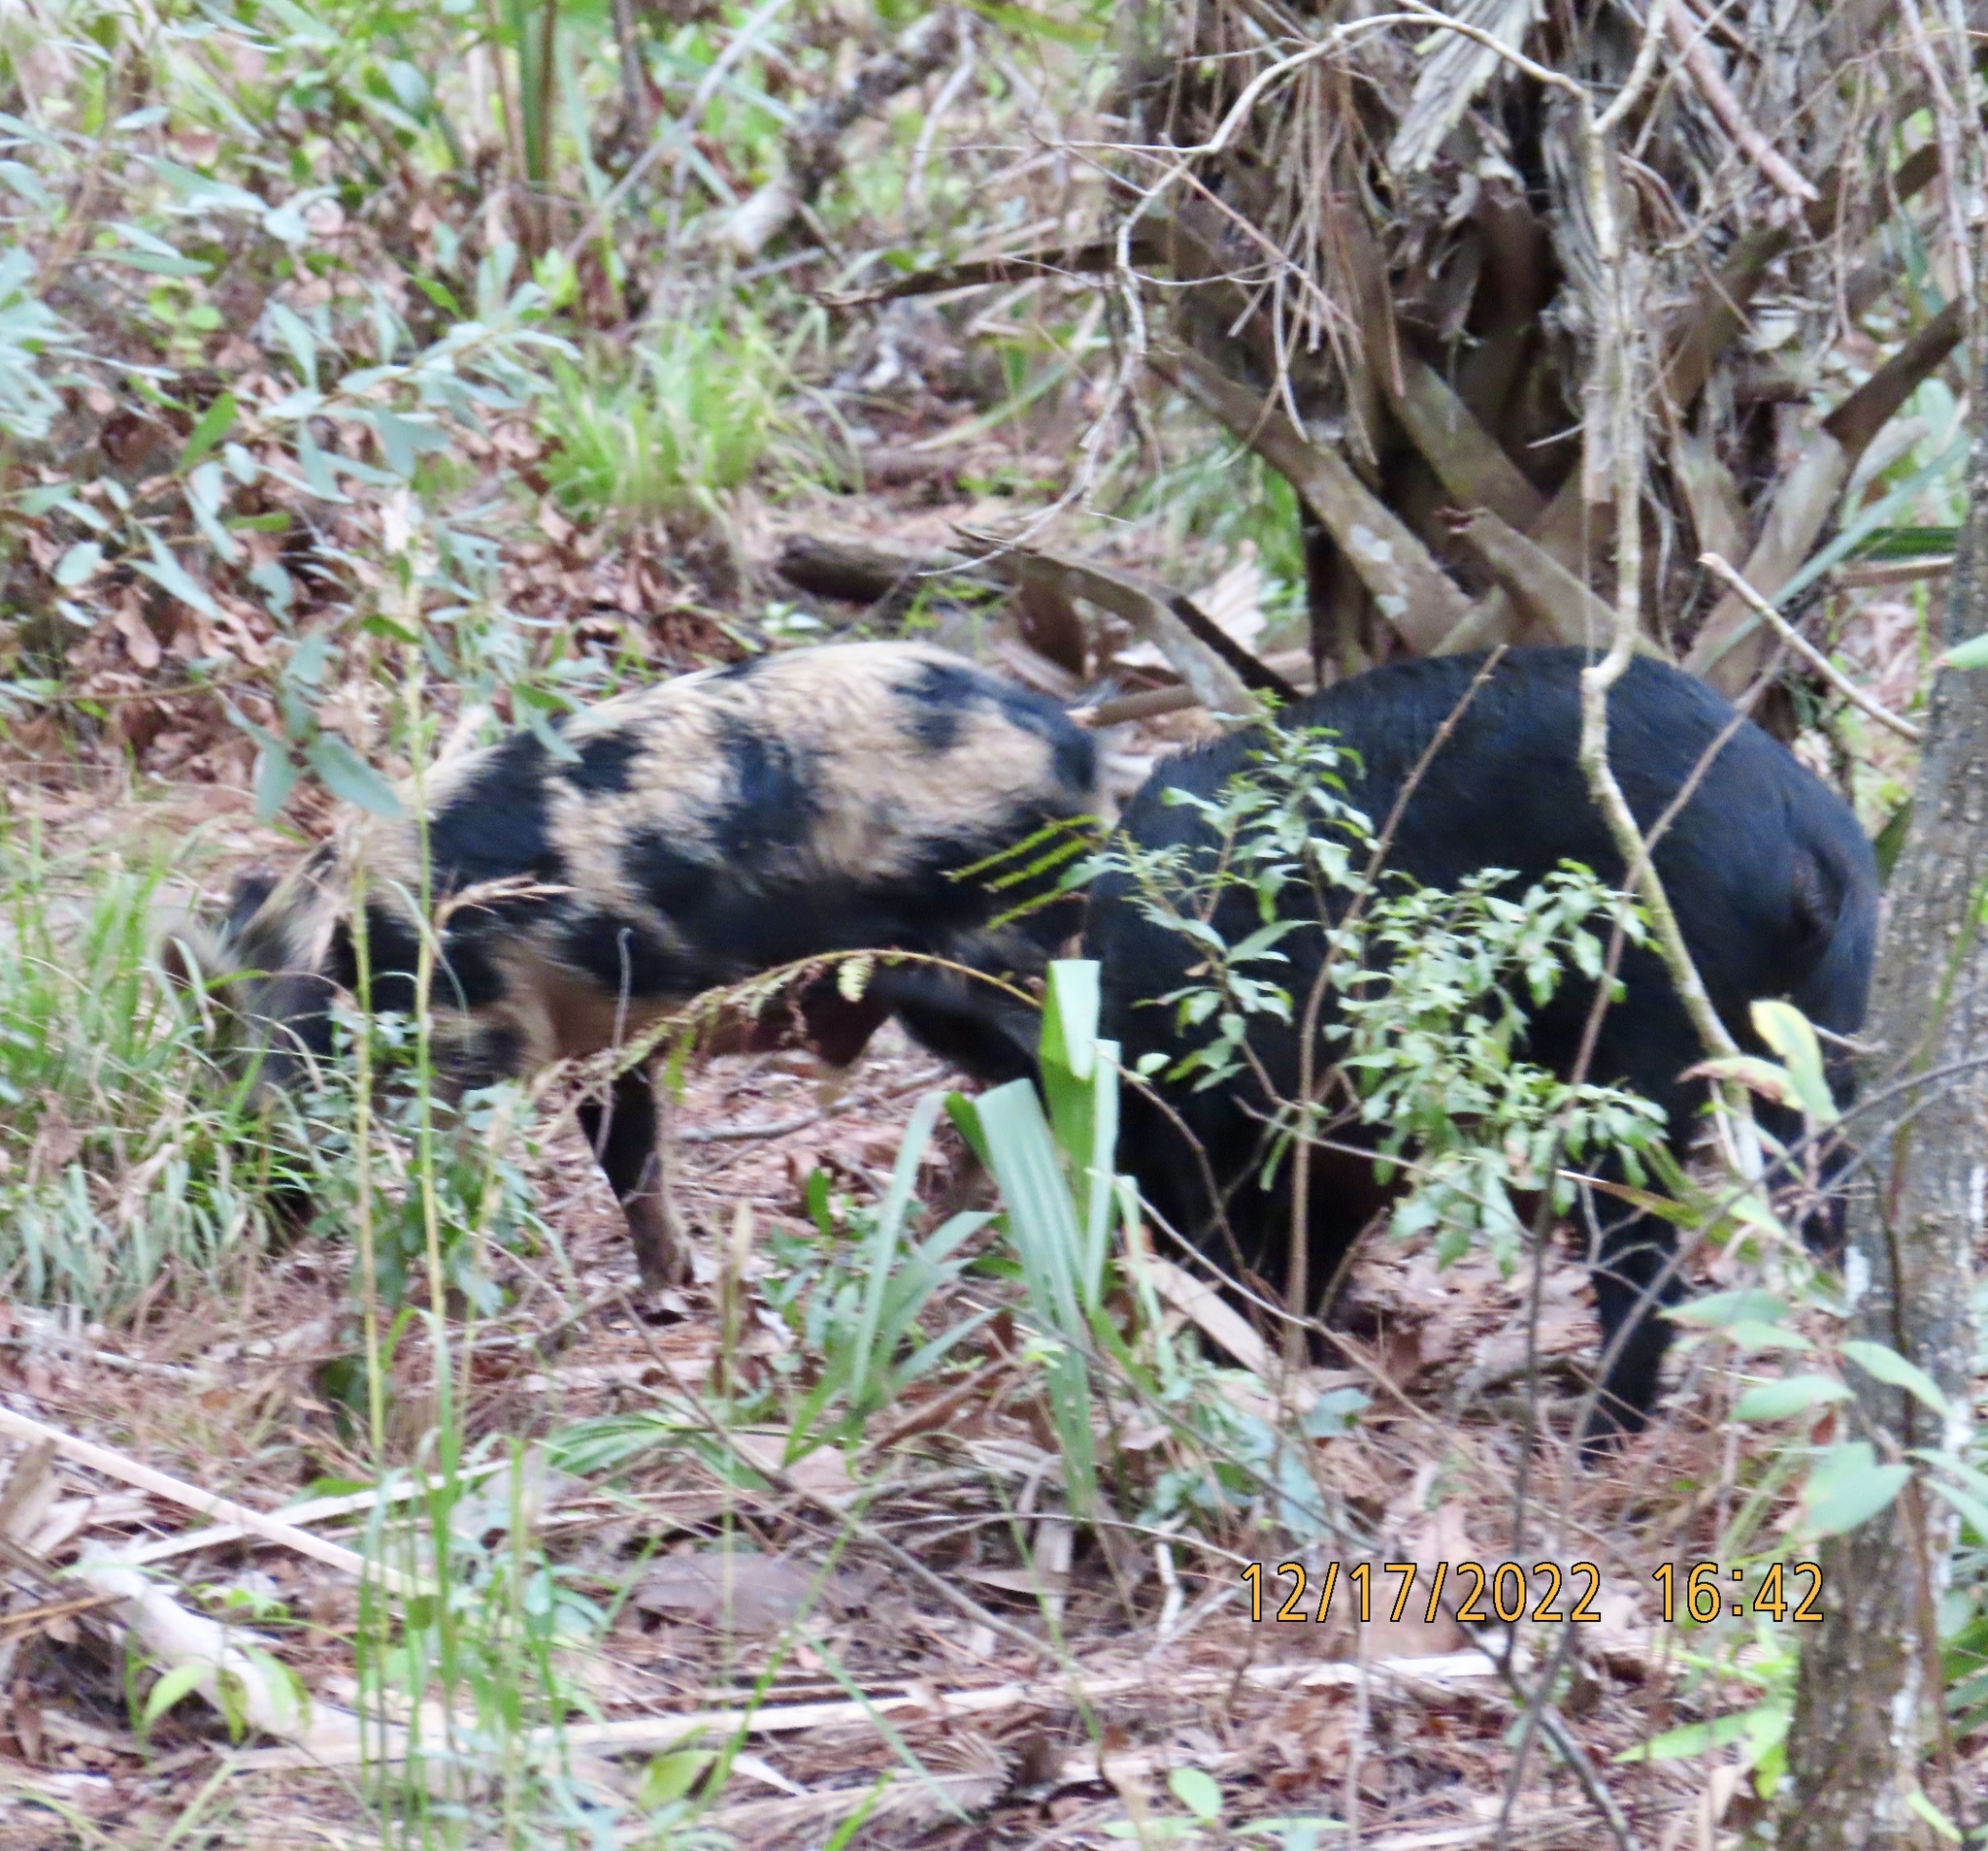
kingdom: Animalia
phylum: Chordata
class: Mammalia
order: Artiodactyla
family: Suidae
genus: Sus
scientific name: Sus scrofa
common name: Wild boar
